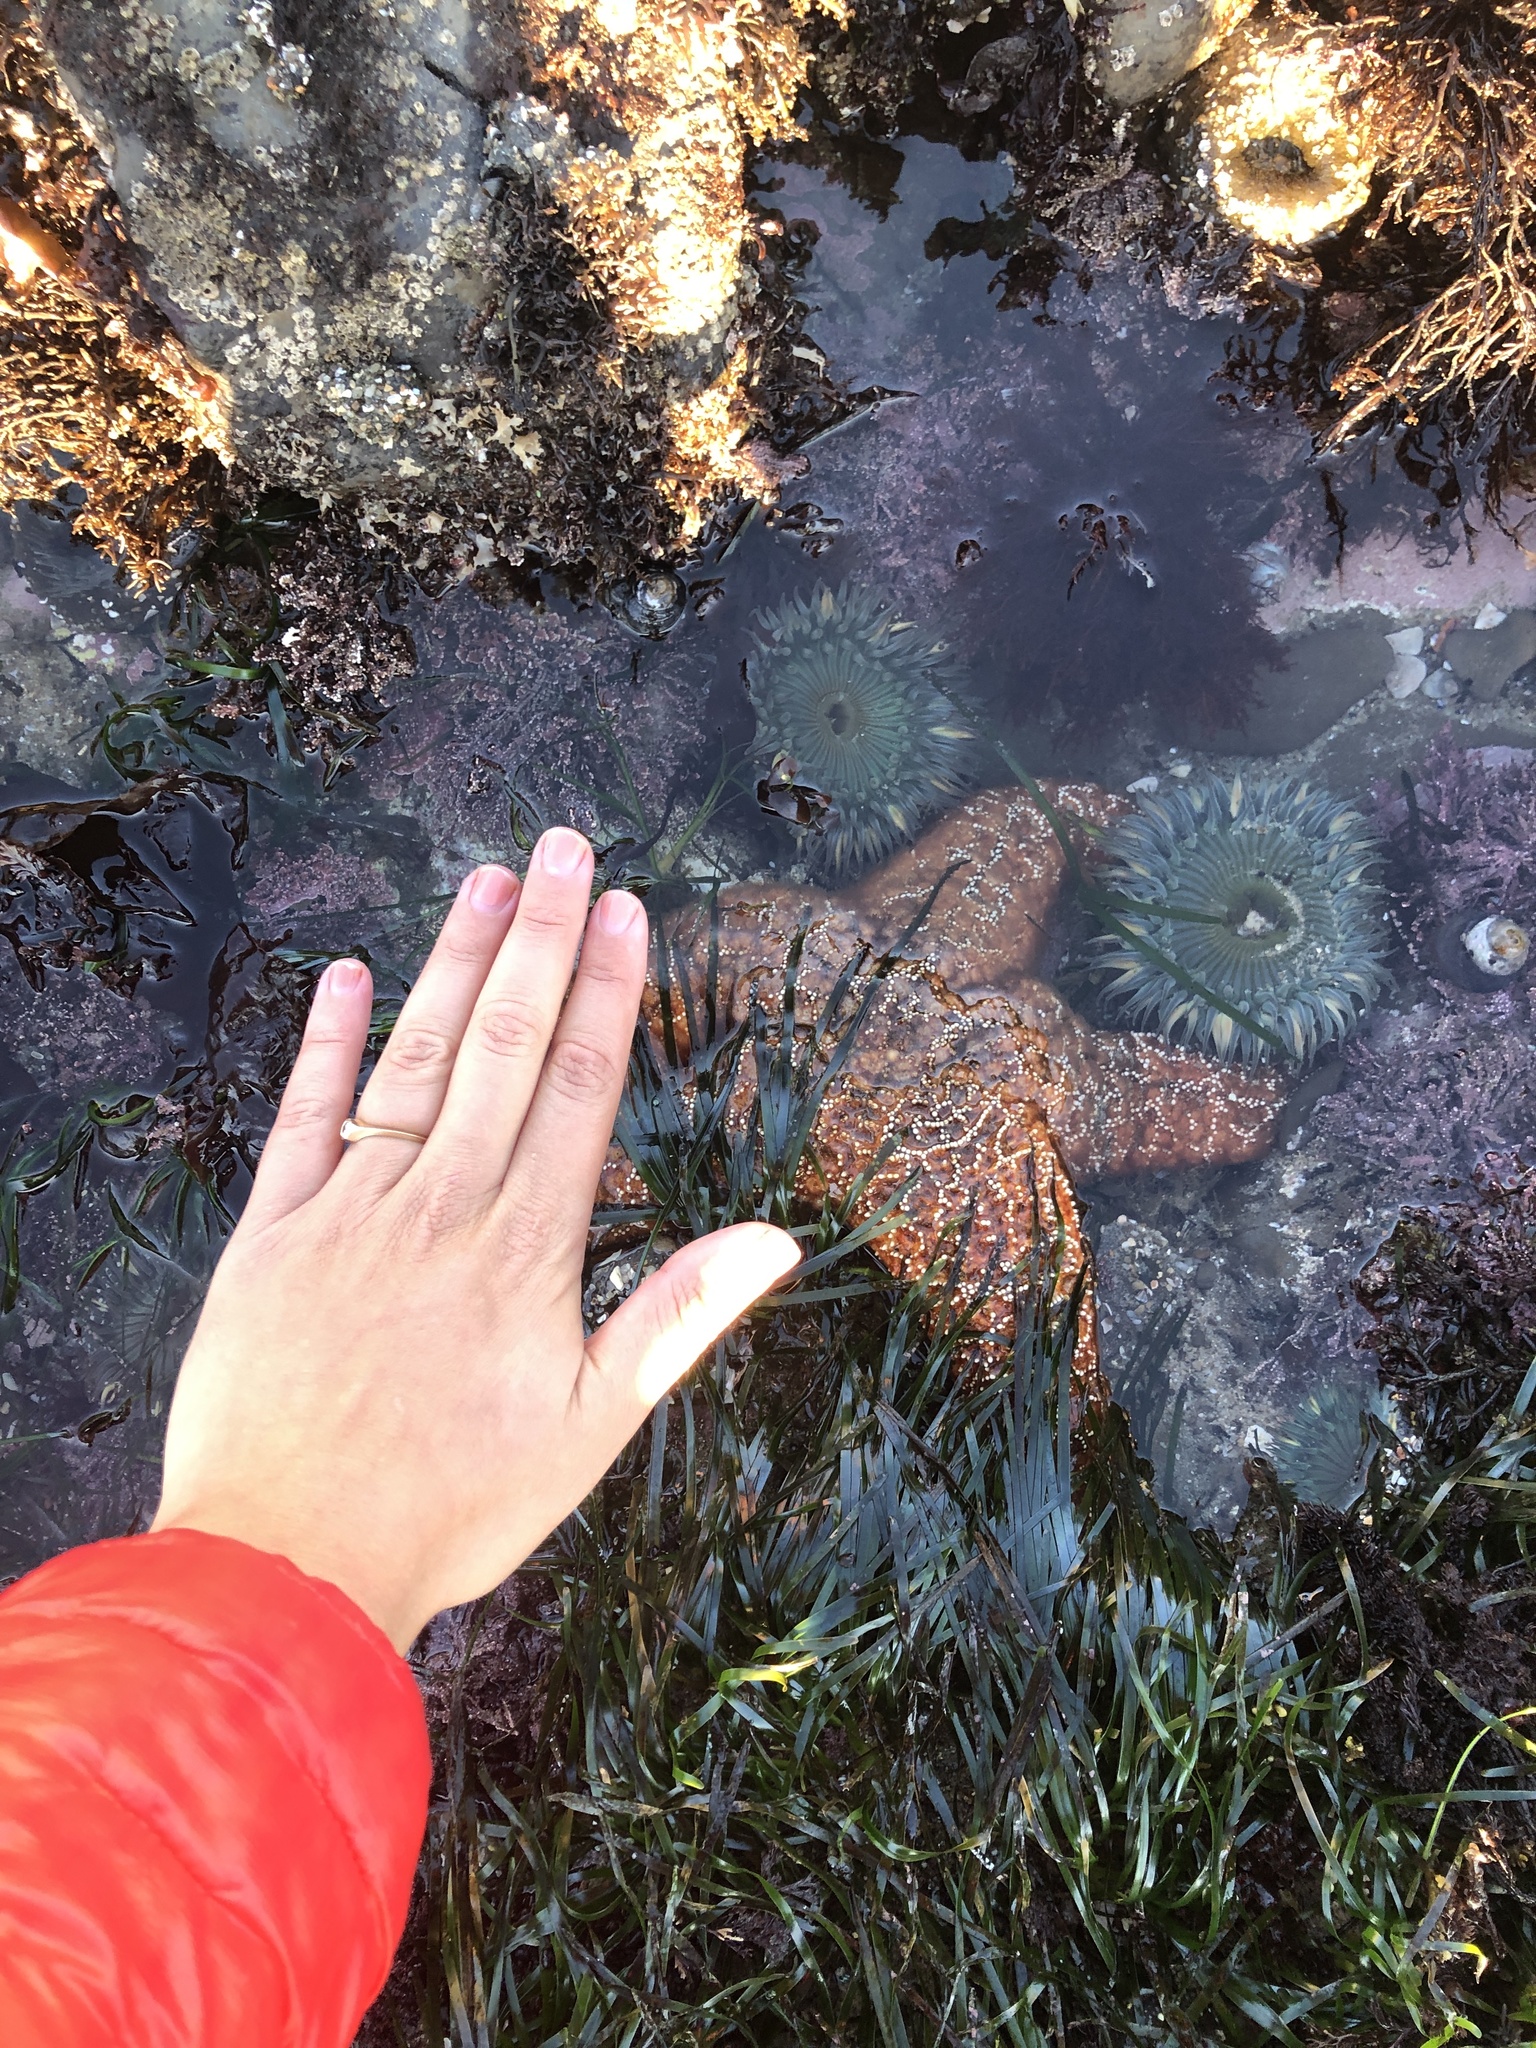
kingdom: Animalia
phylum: Echinodermata
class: Asteroidea
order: Forcipulatida
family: Asteriidae
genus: Pisaster
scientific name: Pisaster ochraceus
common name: Ochre stars
